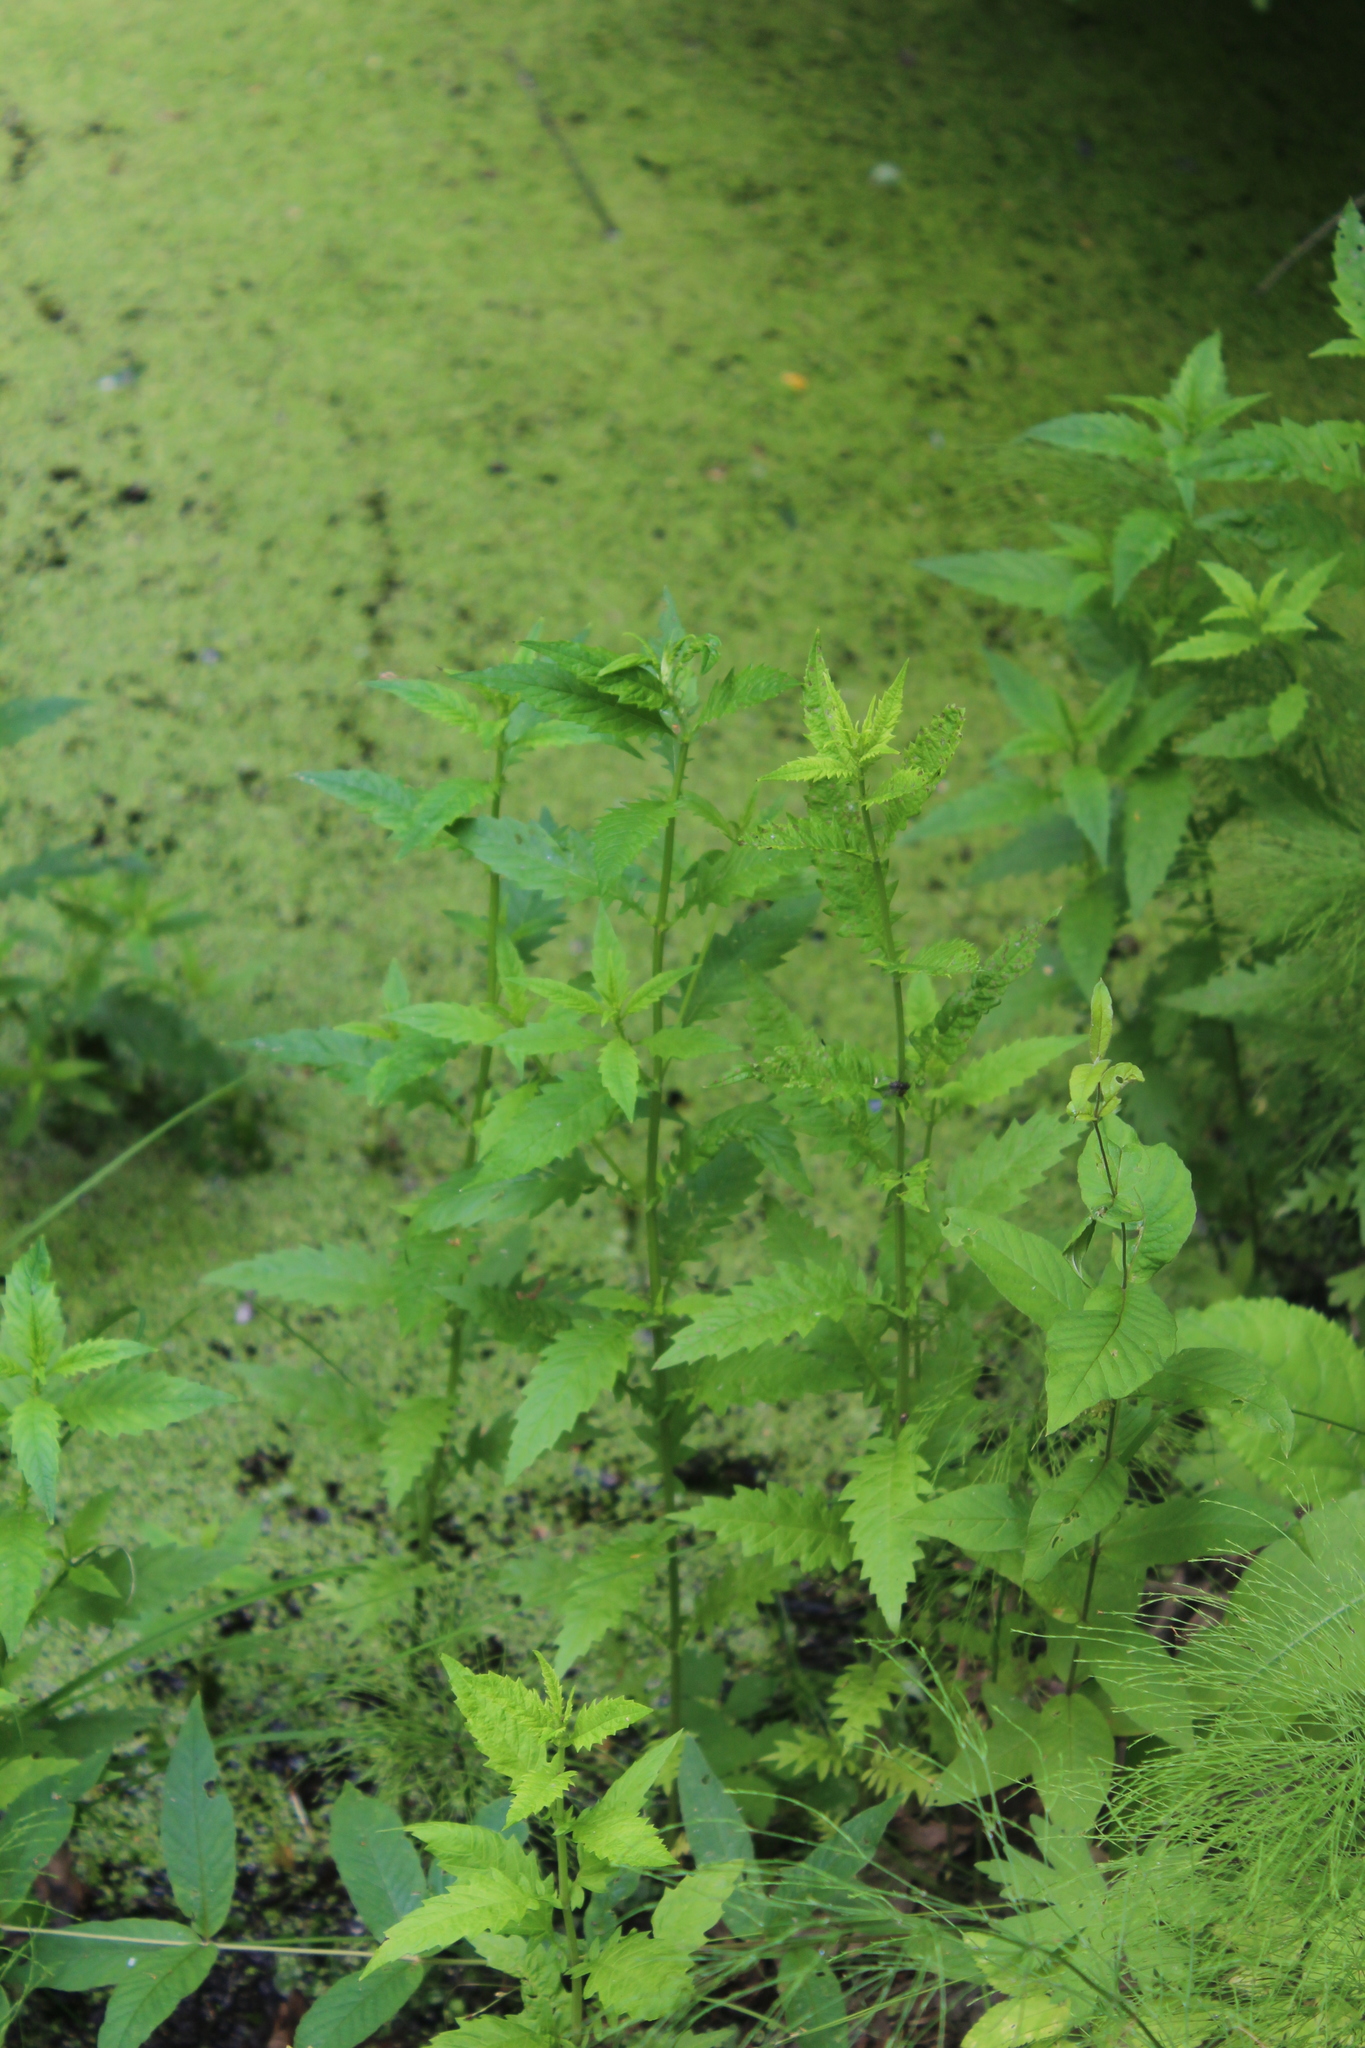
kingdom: Plantae
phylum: Tracheophyta
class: Magnoliopsida
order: Lamiales
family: Lamiaceae
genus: Lycopus
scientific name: Lycopus europaeus
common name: European bugleweed
